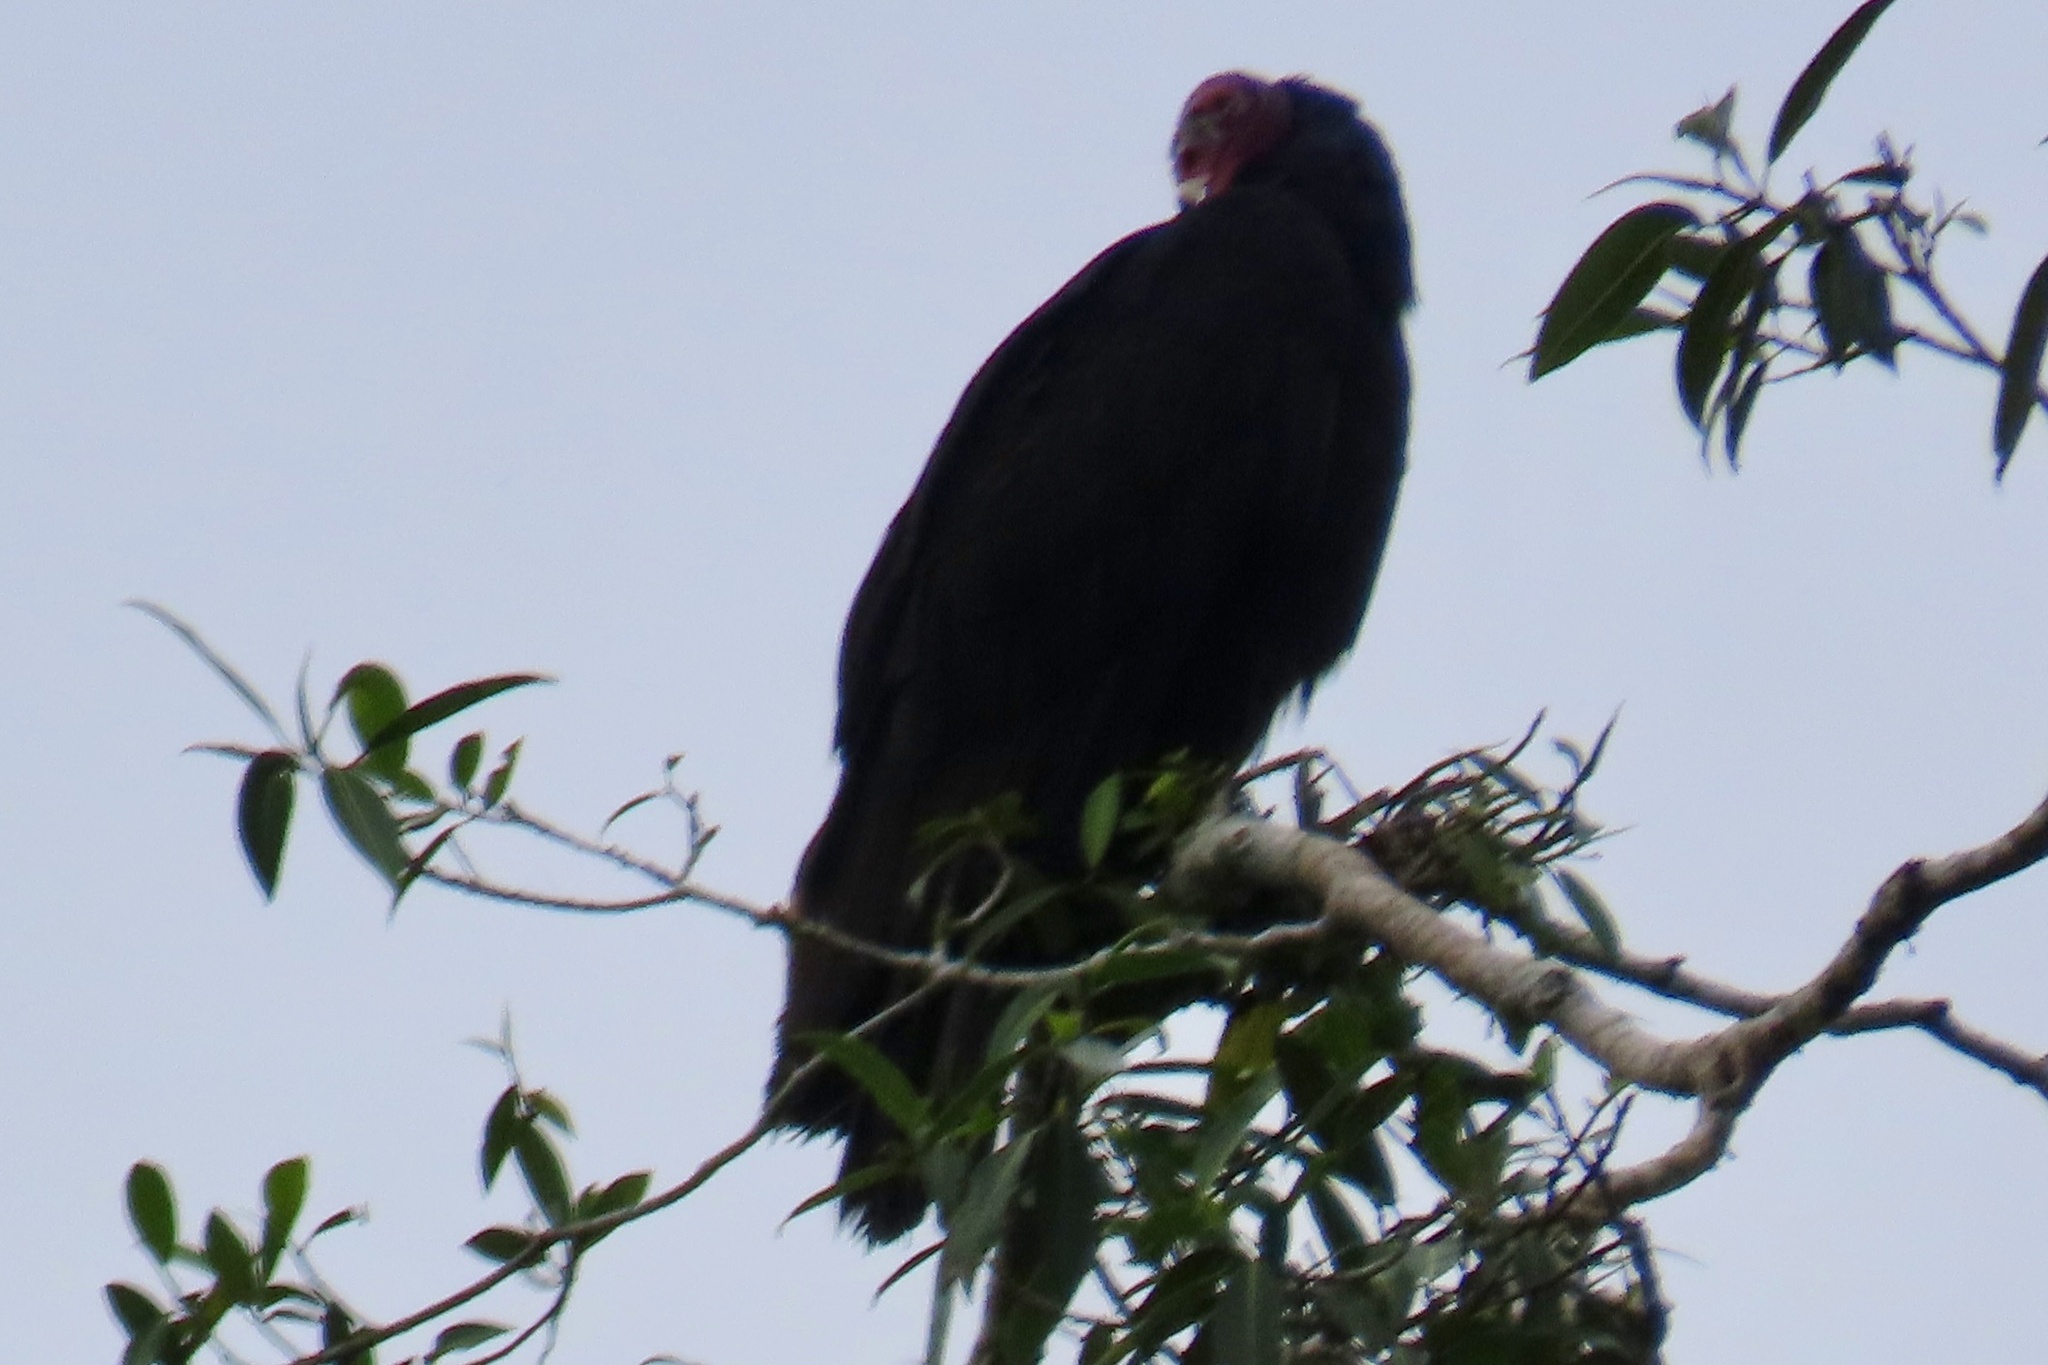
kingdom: Animalia
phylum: Chordata
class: Aves
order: Accipitriformes
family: Cathartidae
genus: Cathartes
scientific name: Cathartes aura
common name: Turkey vulture
